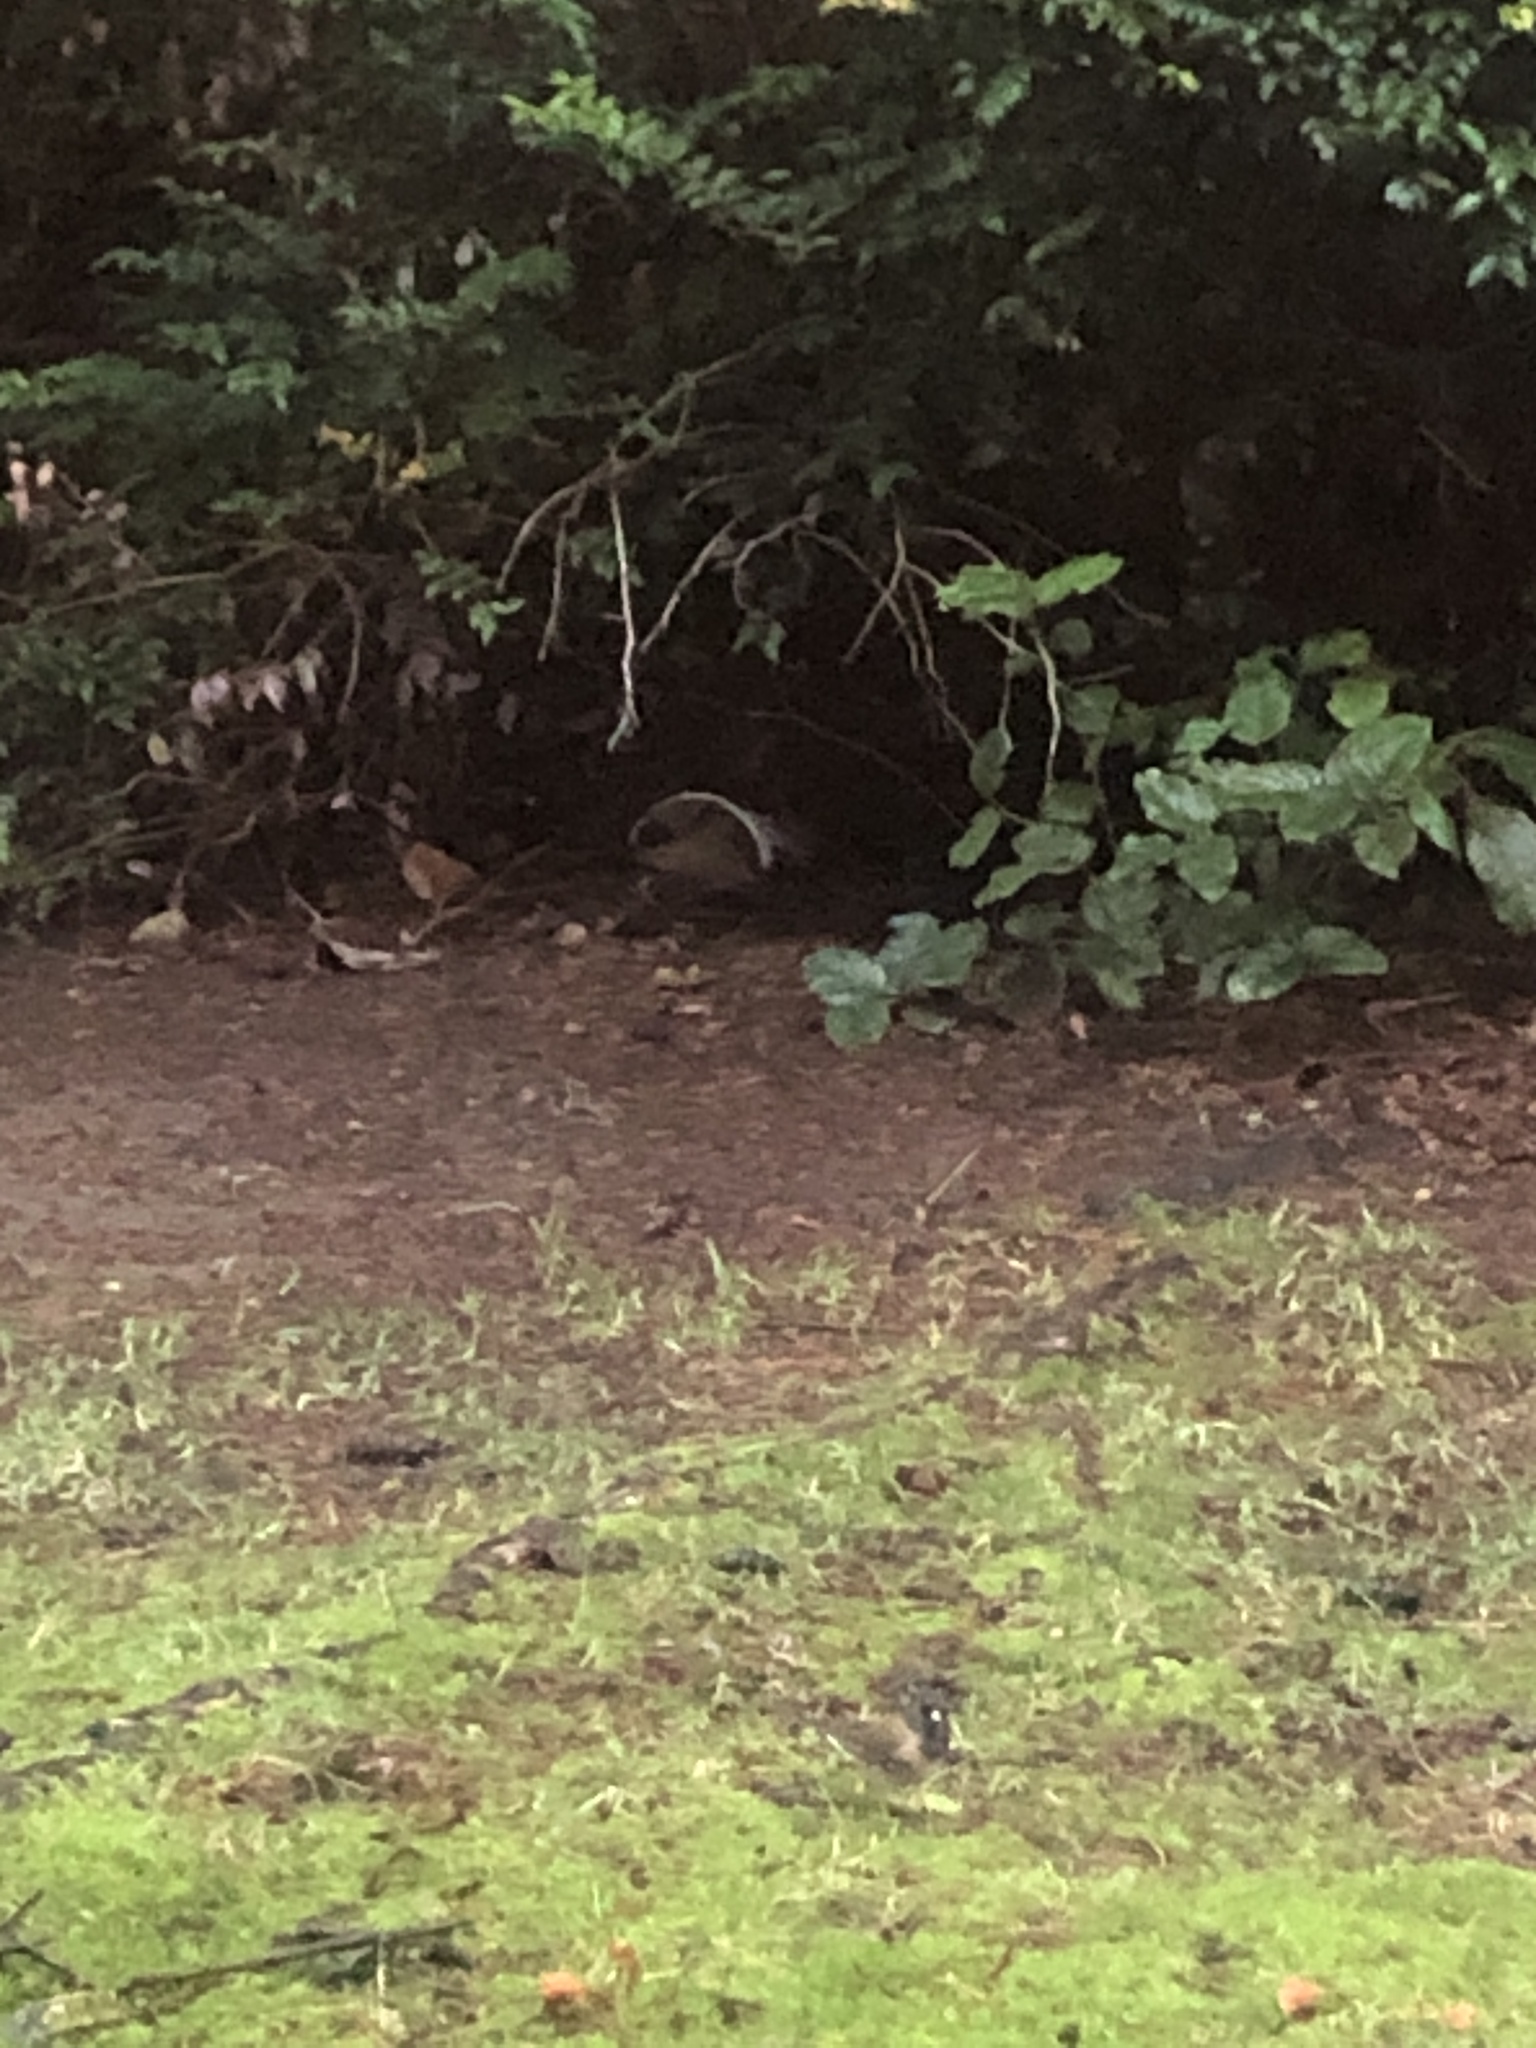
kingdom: Animalia
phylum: Chordata
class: Aves
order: Passeriformes
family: Passerellidae
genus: Junco
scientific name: Junco hyemalis
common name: Dark-eyed junco
